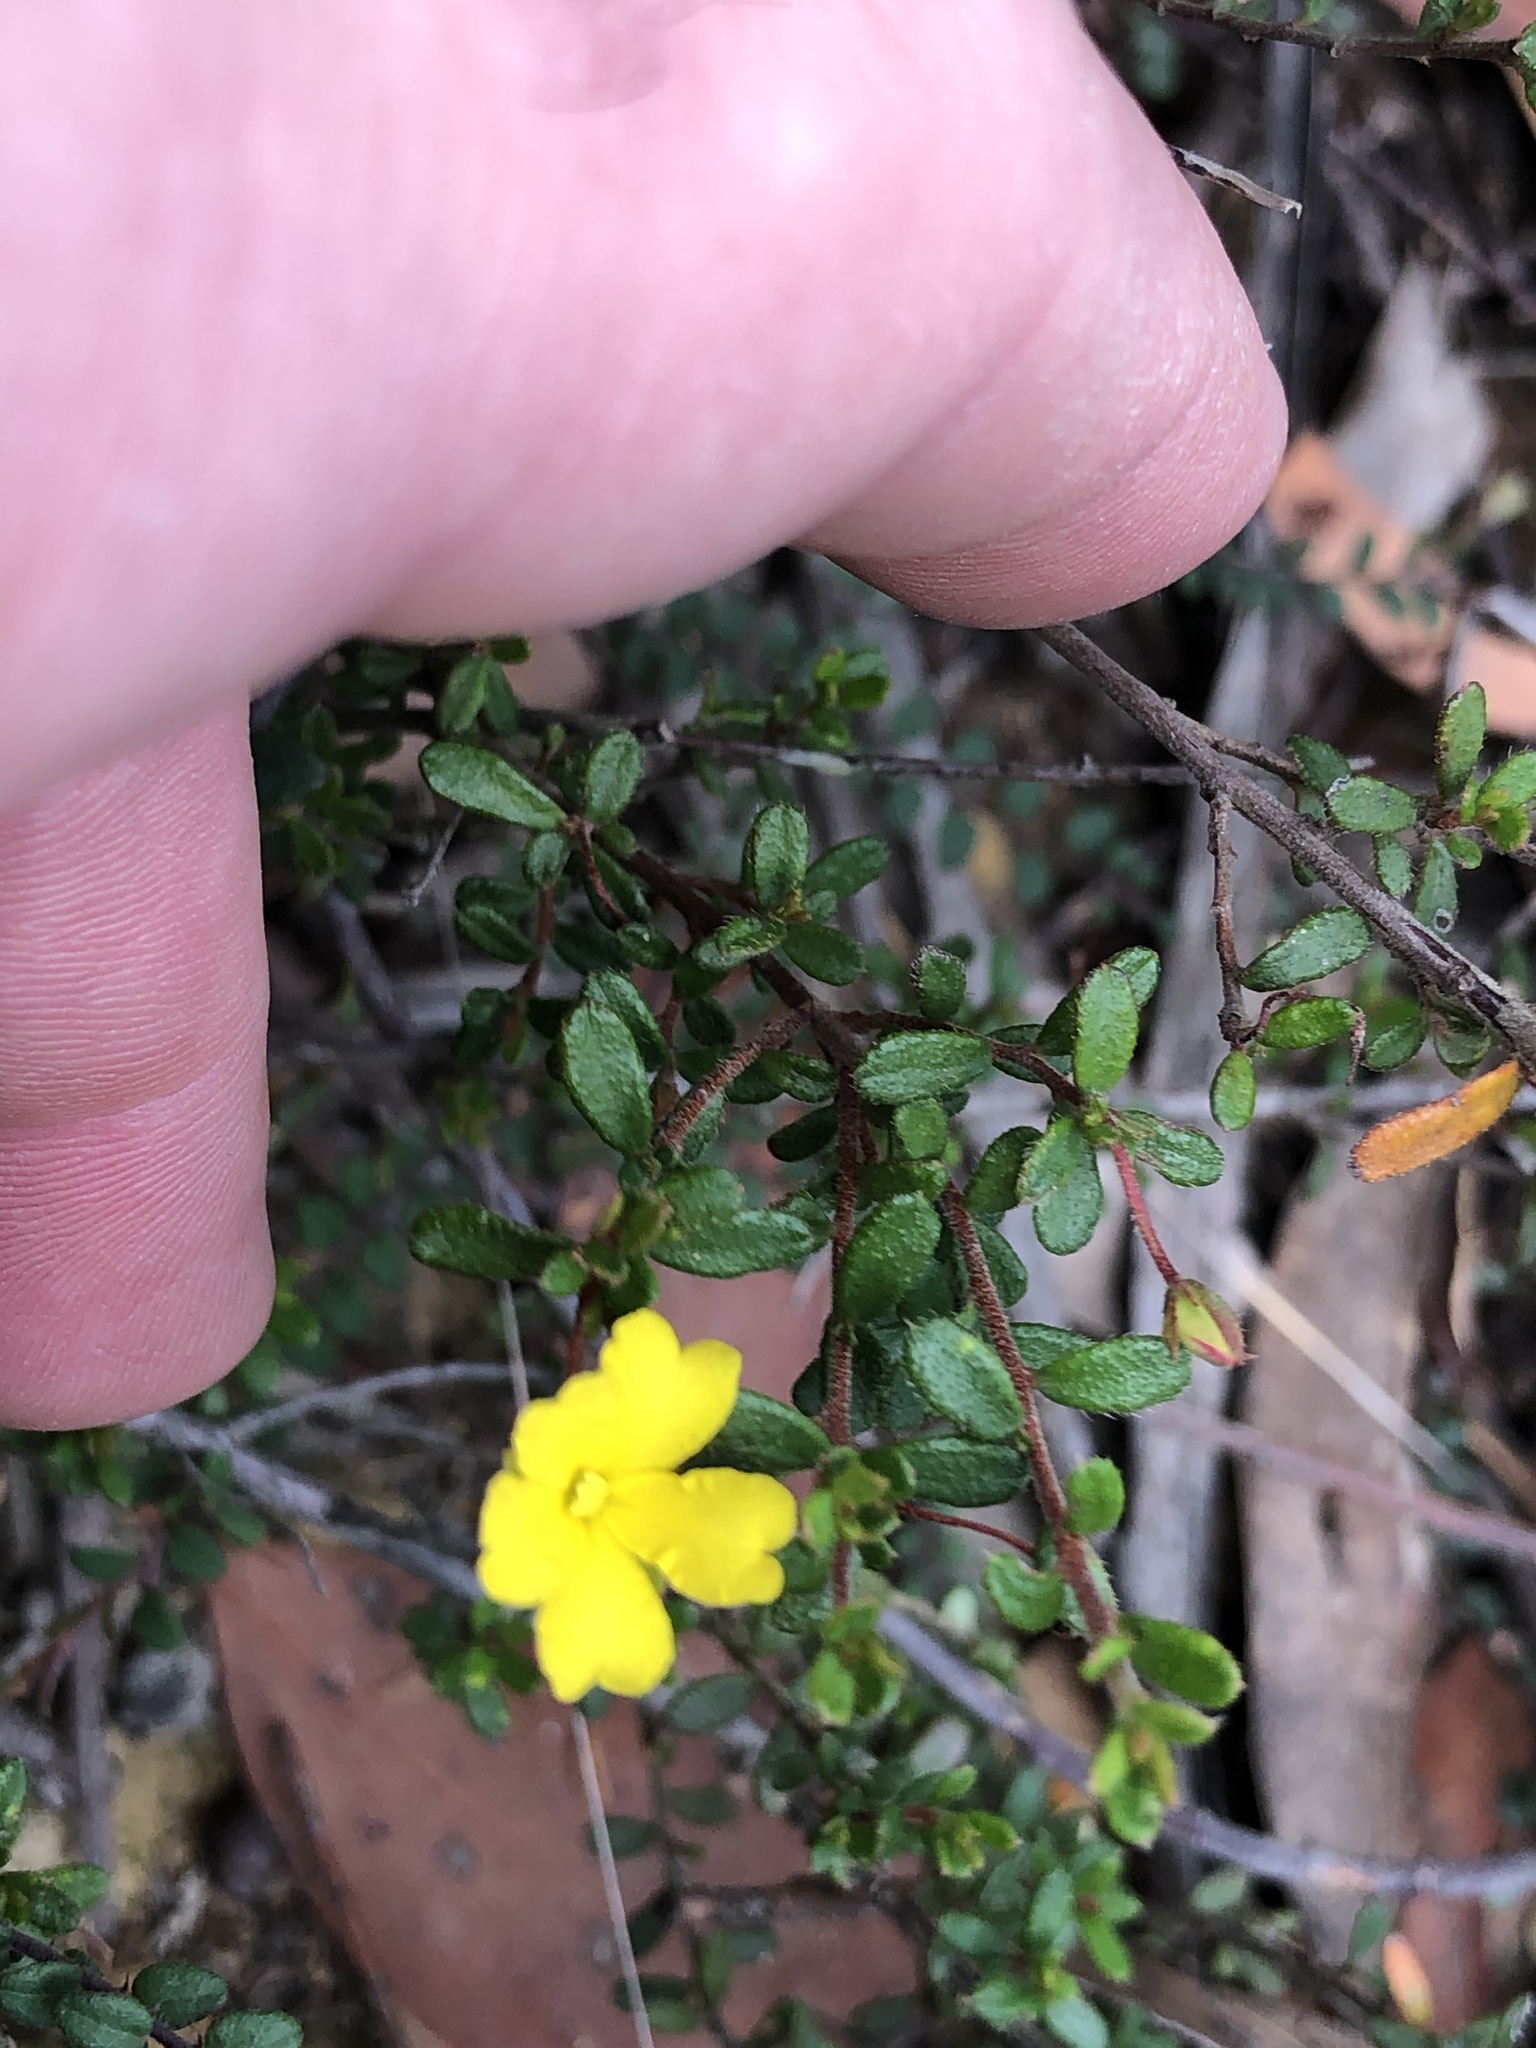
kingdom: Plantae
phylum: Tracheophyta
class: Magnoliopsida
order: Dilleniales
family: Dilleniaceae
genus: Hibbertia
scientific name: Hibbertia empetrifolia
